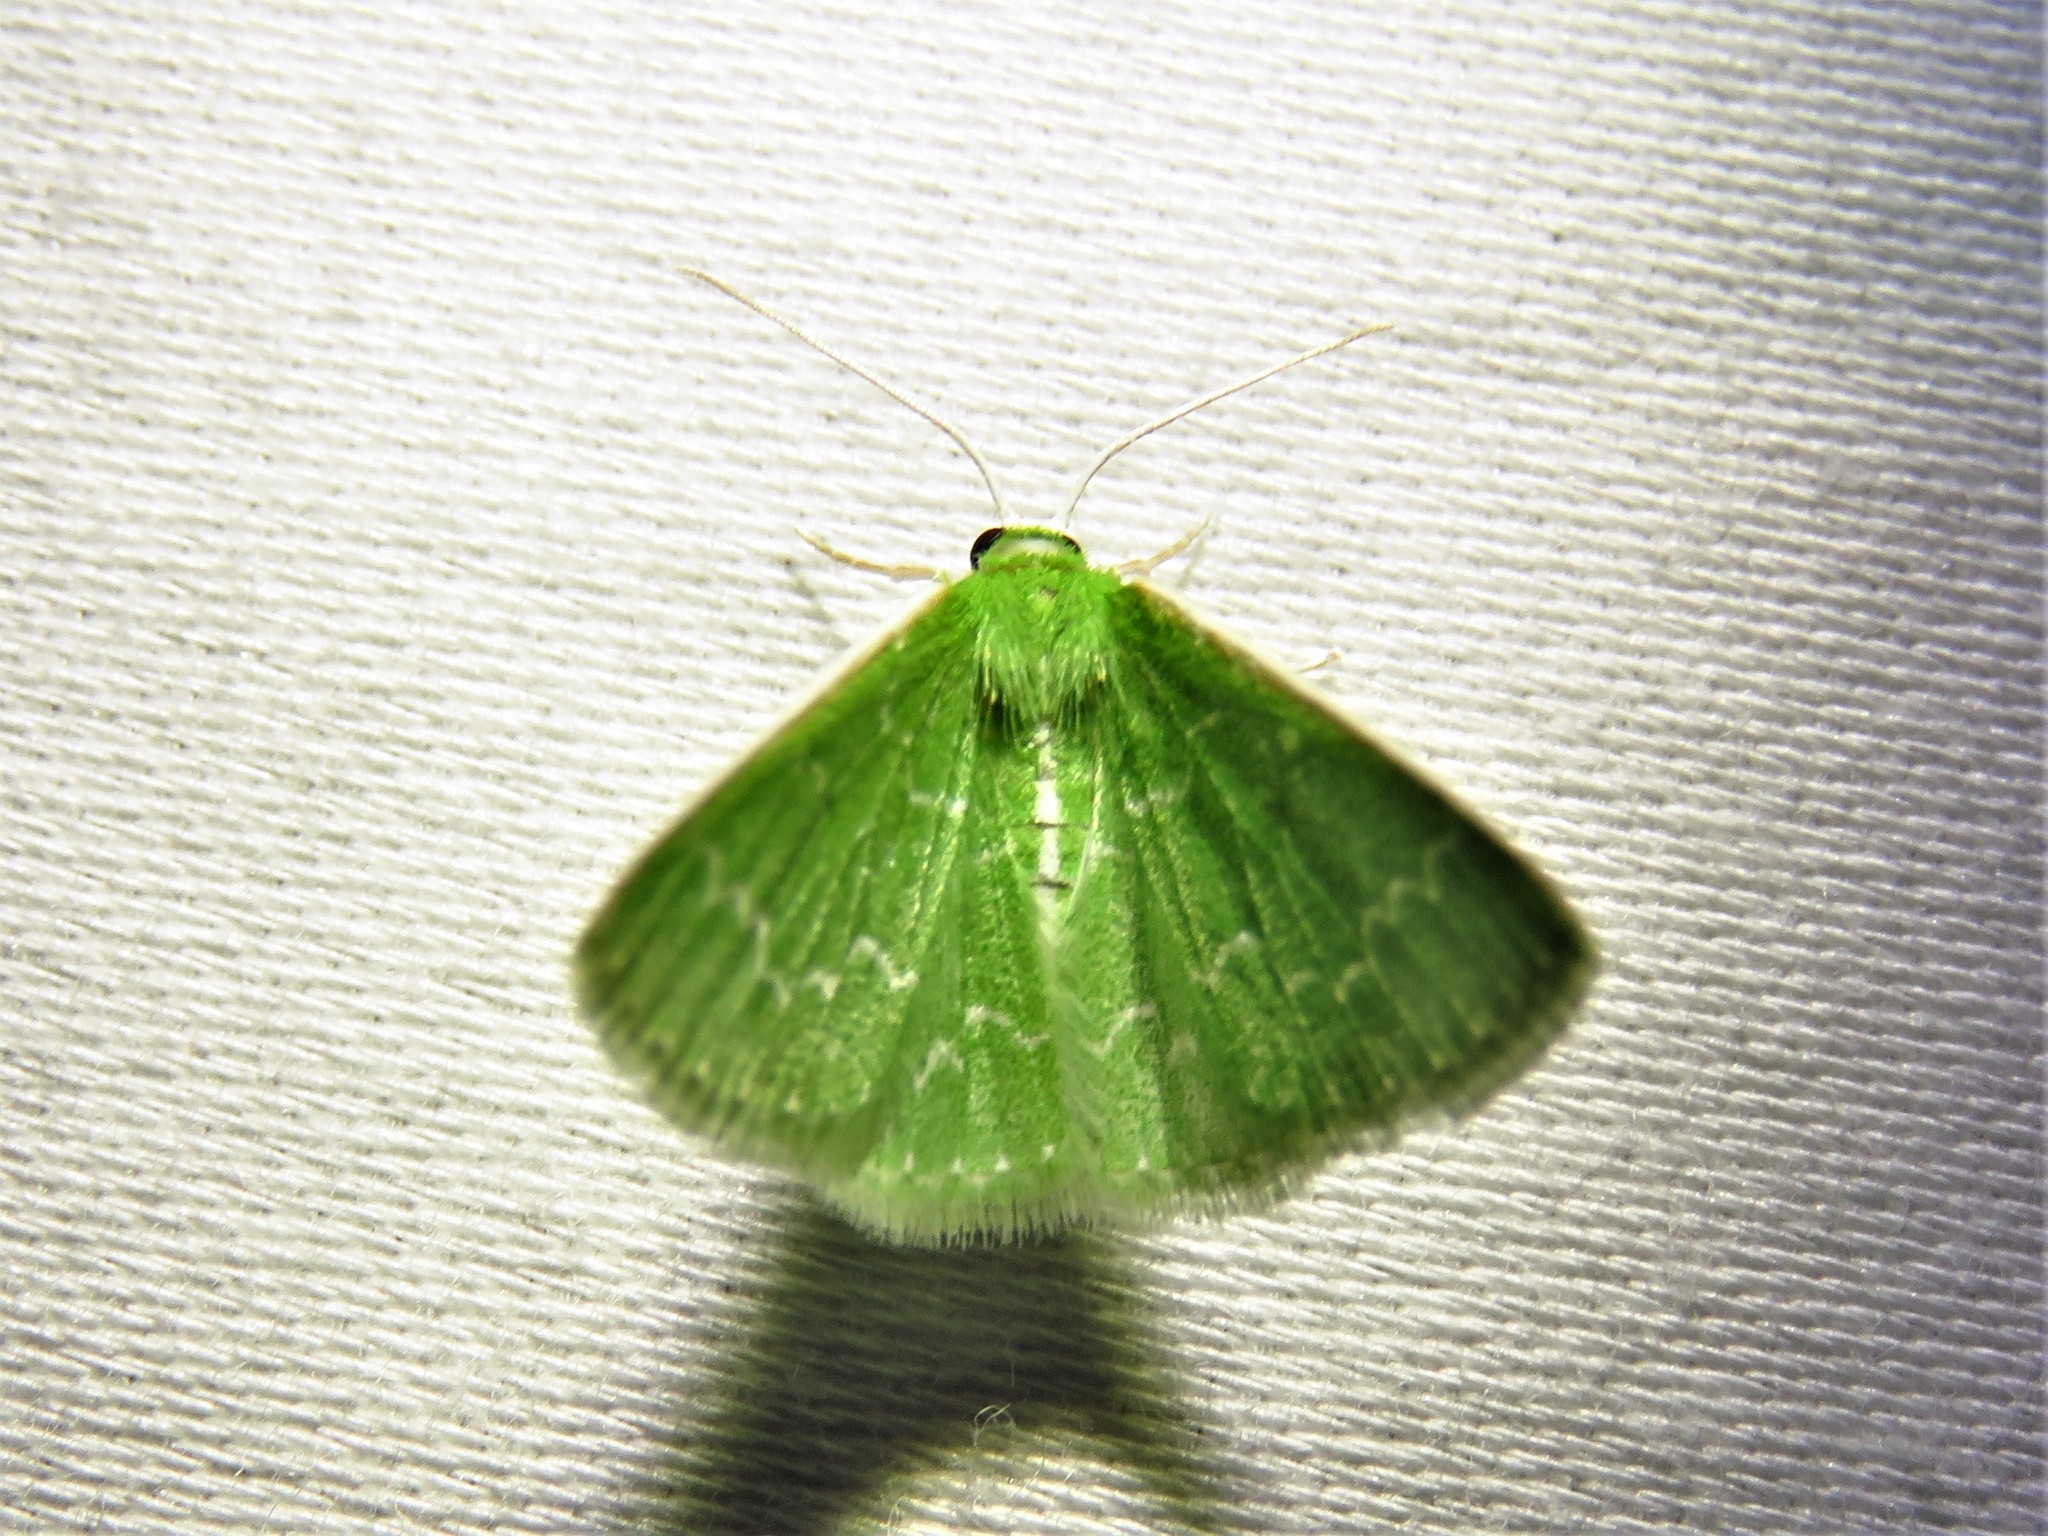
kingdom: Animalia
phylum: Arthropoda
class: Insecta
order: Lepidoptera
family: Geometridae
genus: Synchlora
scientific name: Synchlora frondaria
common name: Southern emerald
